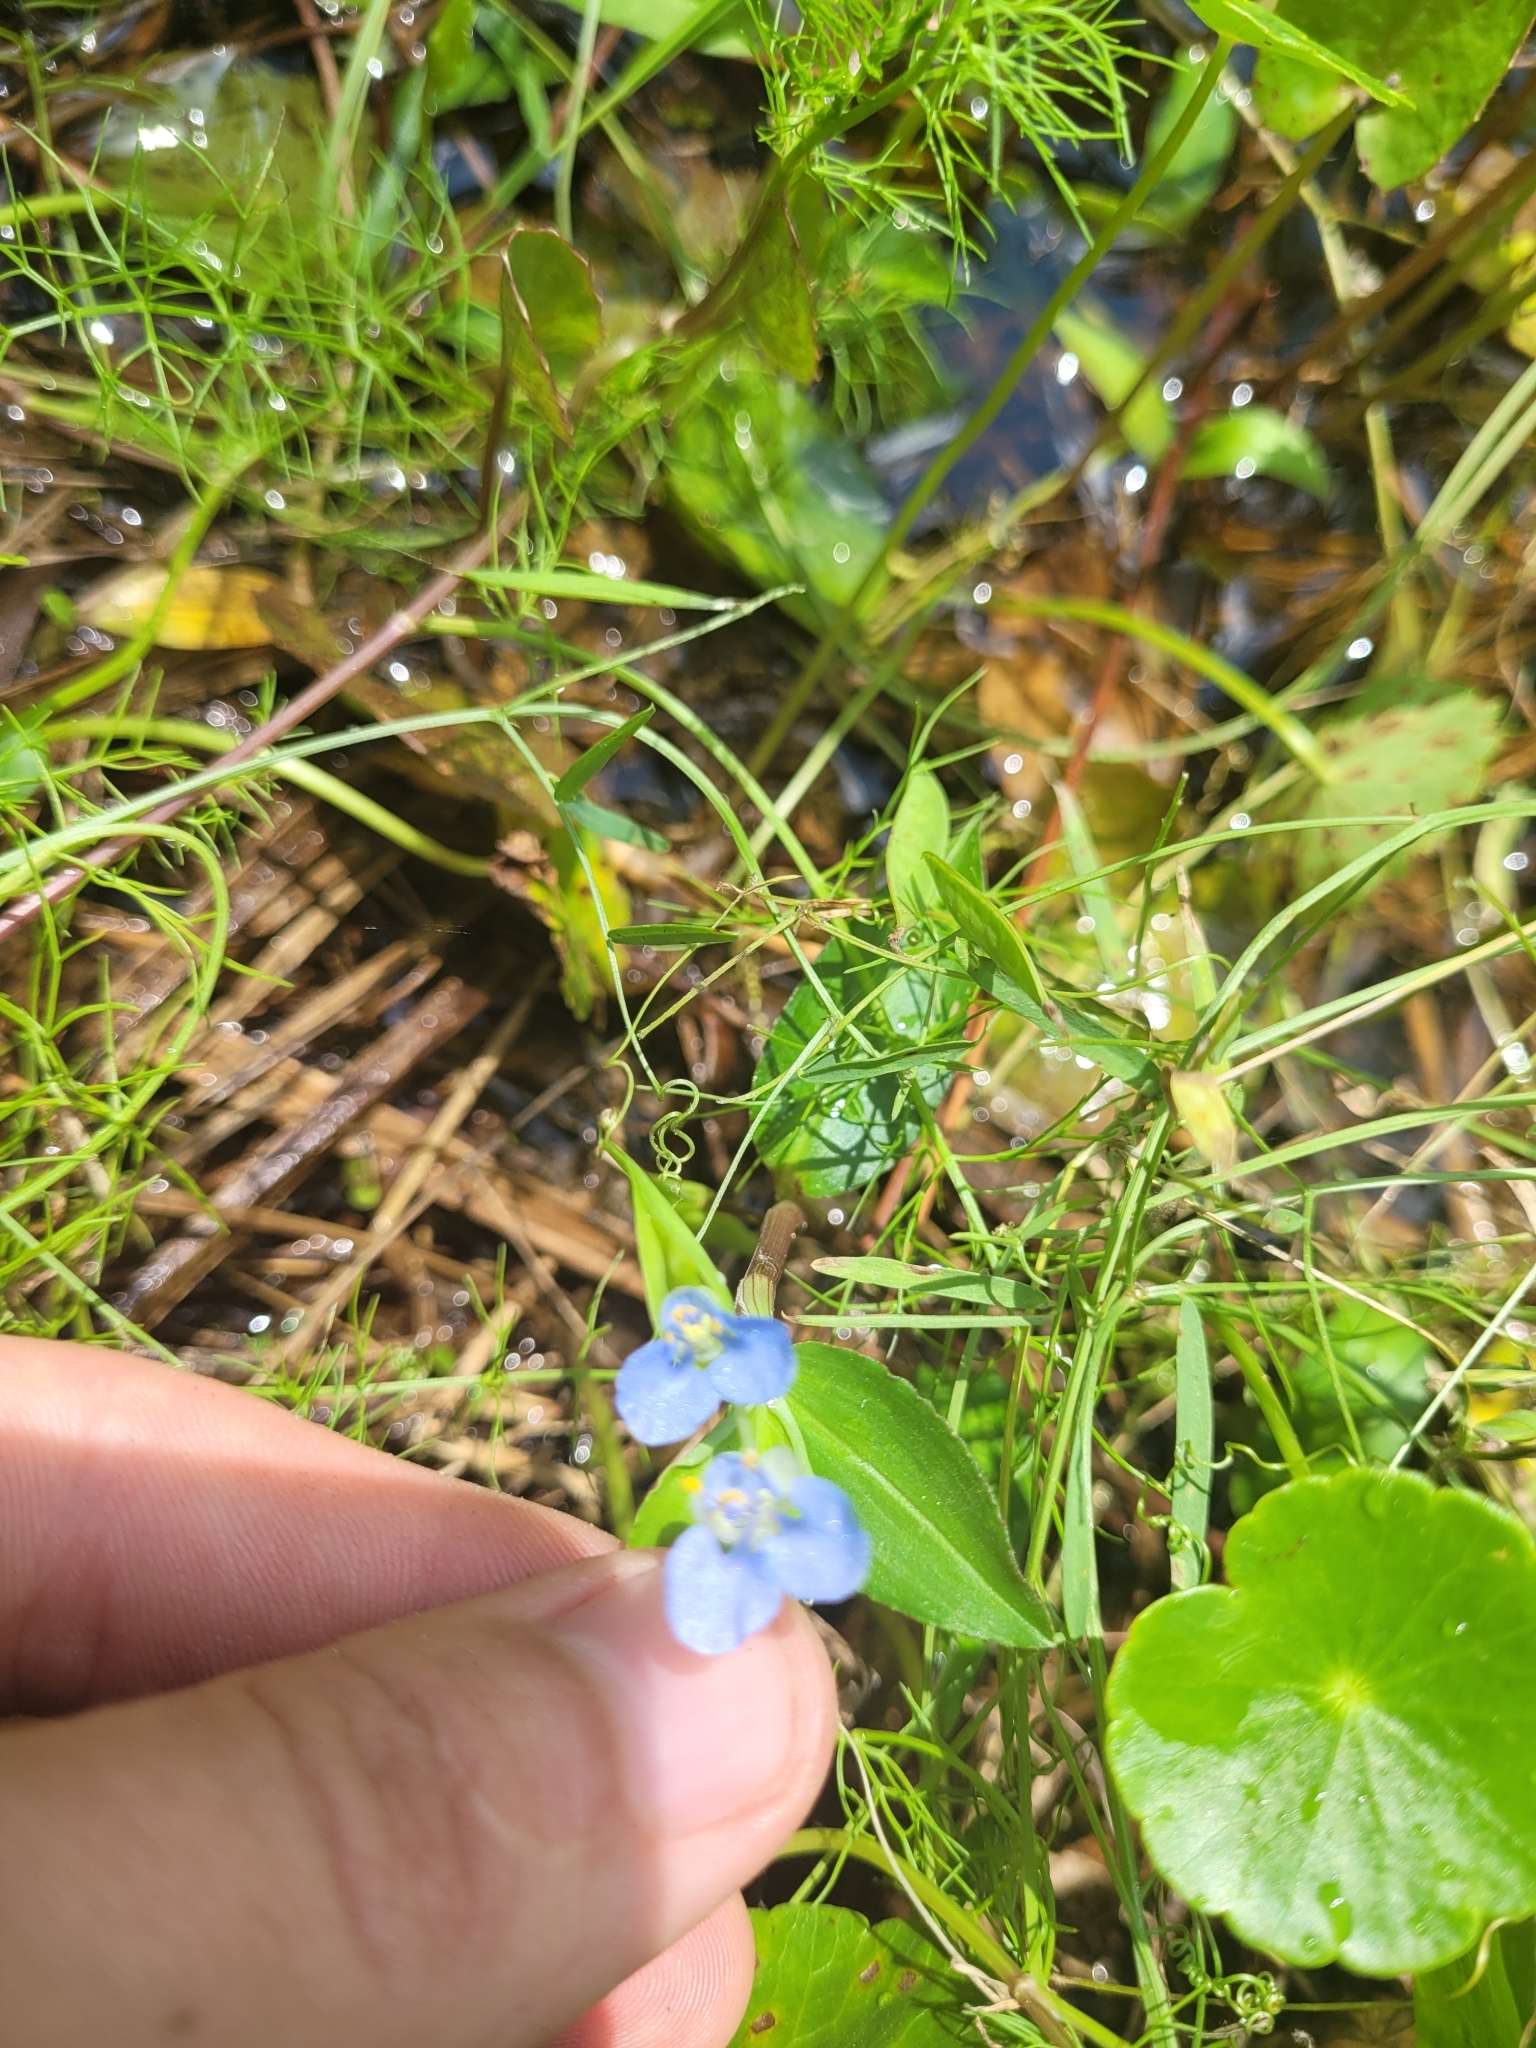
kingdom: Plantae
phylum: Tracheophyta
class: Liliopsida
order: Commelinales
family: Commelinaceae
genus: Commelina
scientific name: Commelina diffusa
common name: Climbing dayflower
